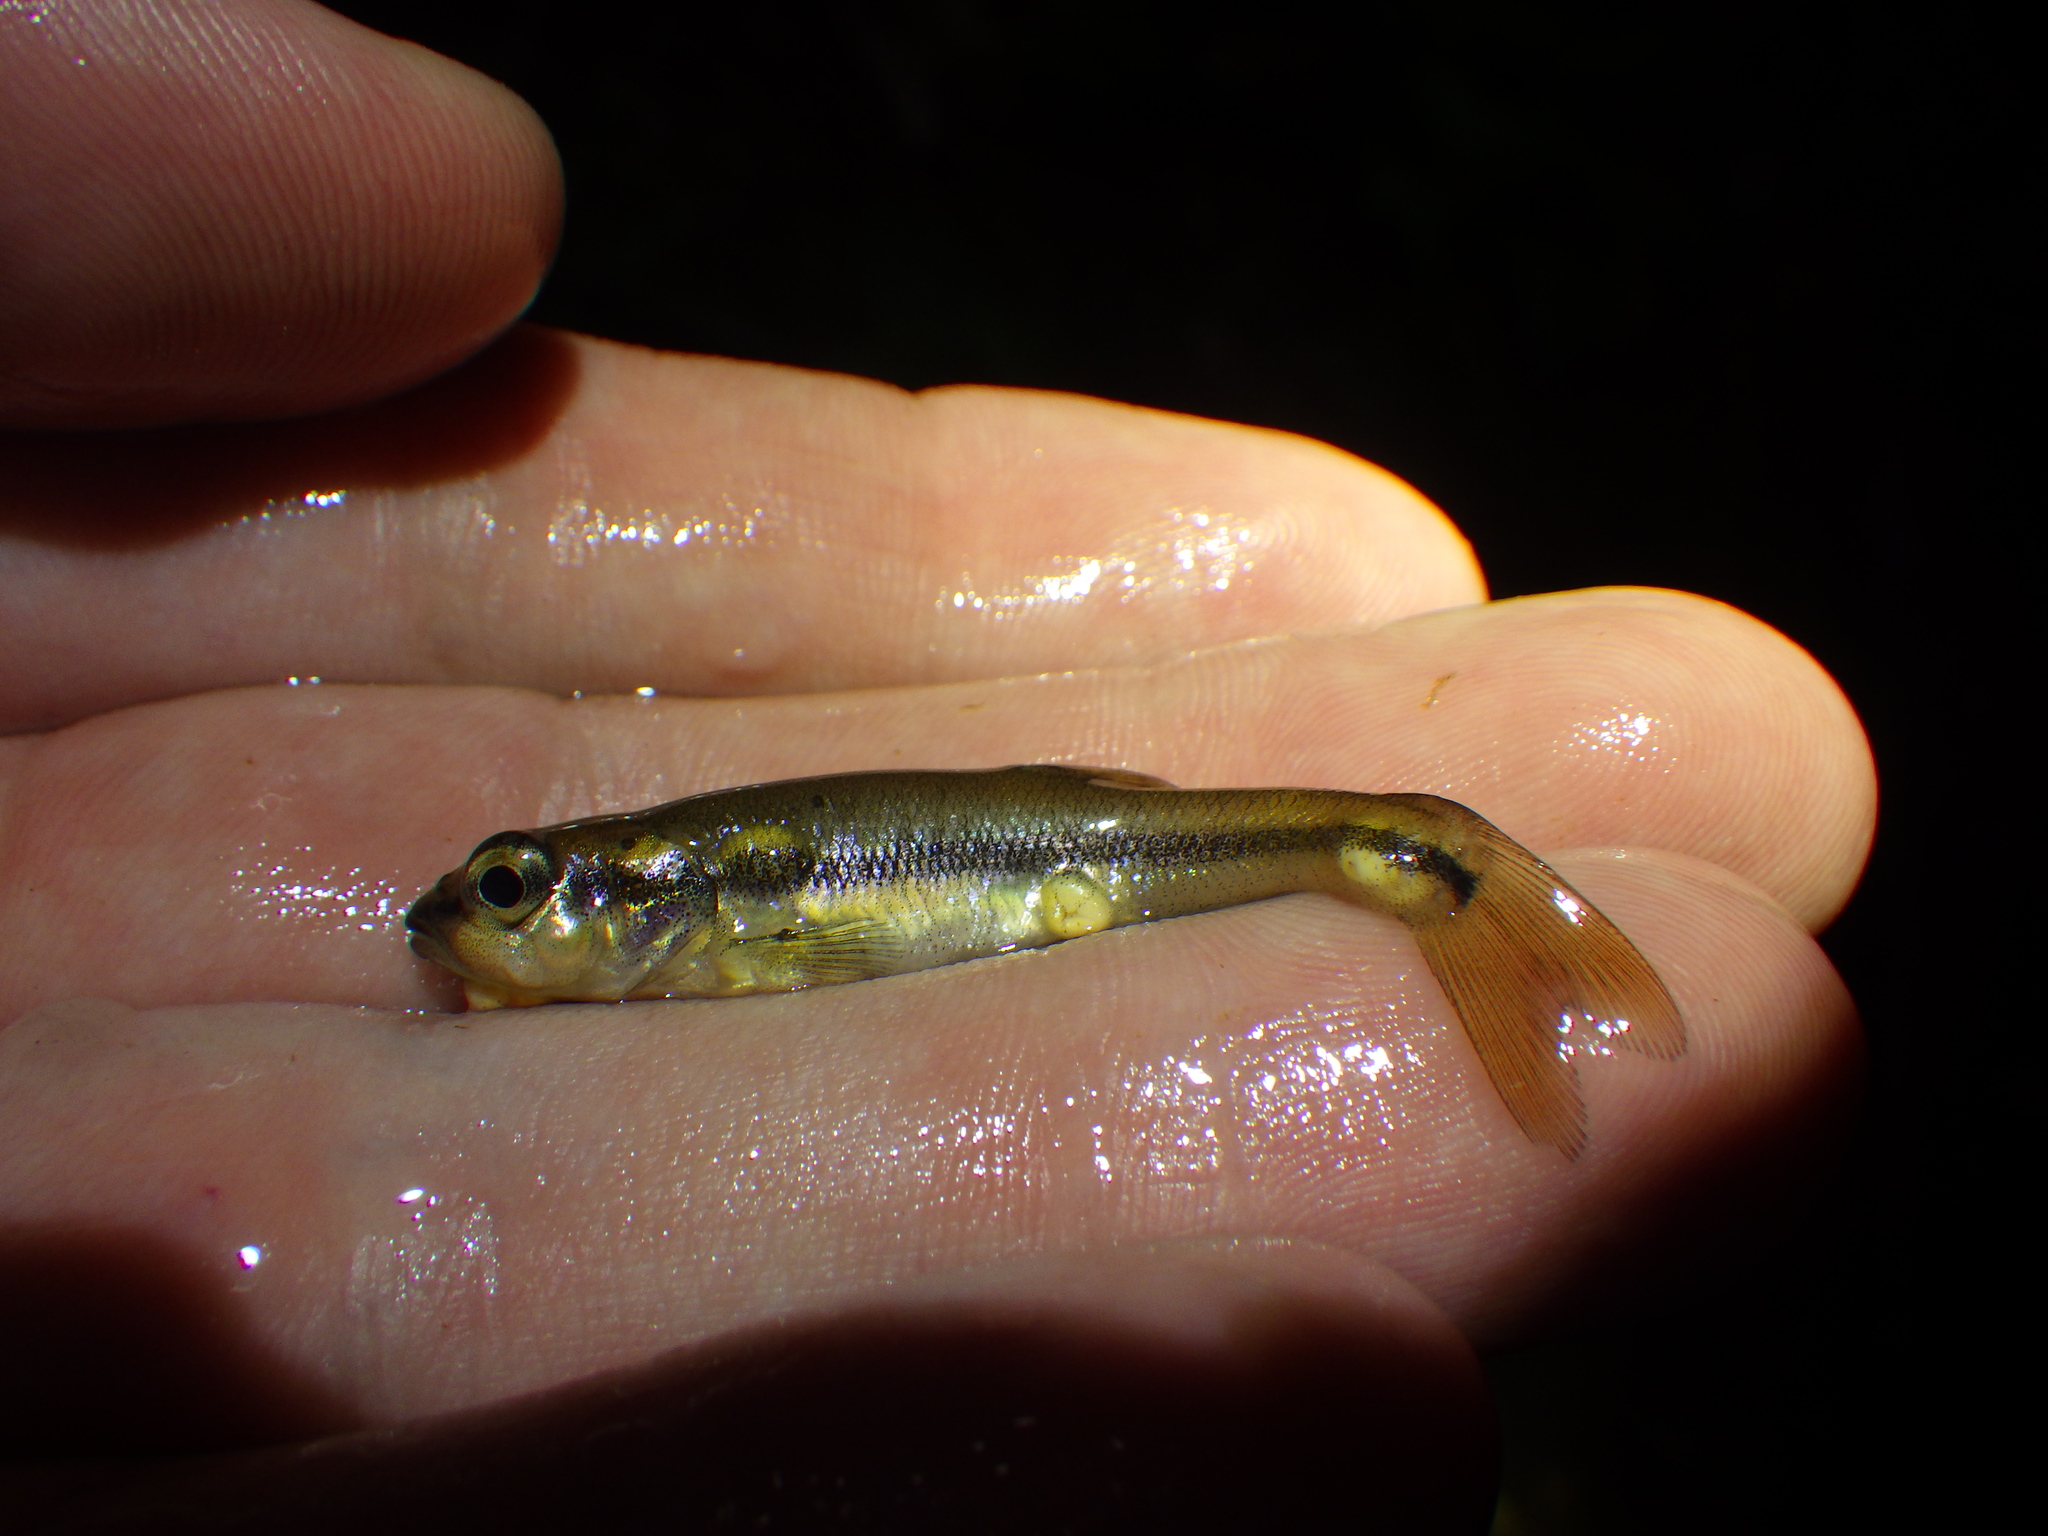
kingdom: Animalia
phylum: Chordata
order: Cypriniformes
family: Cyprinidae
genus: Semotilus
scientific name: Semotilus atromaculatus
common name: Creek chub
